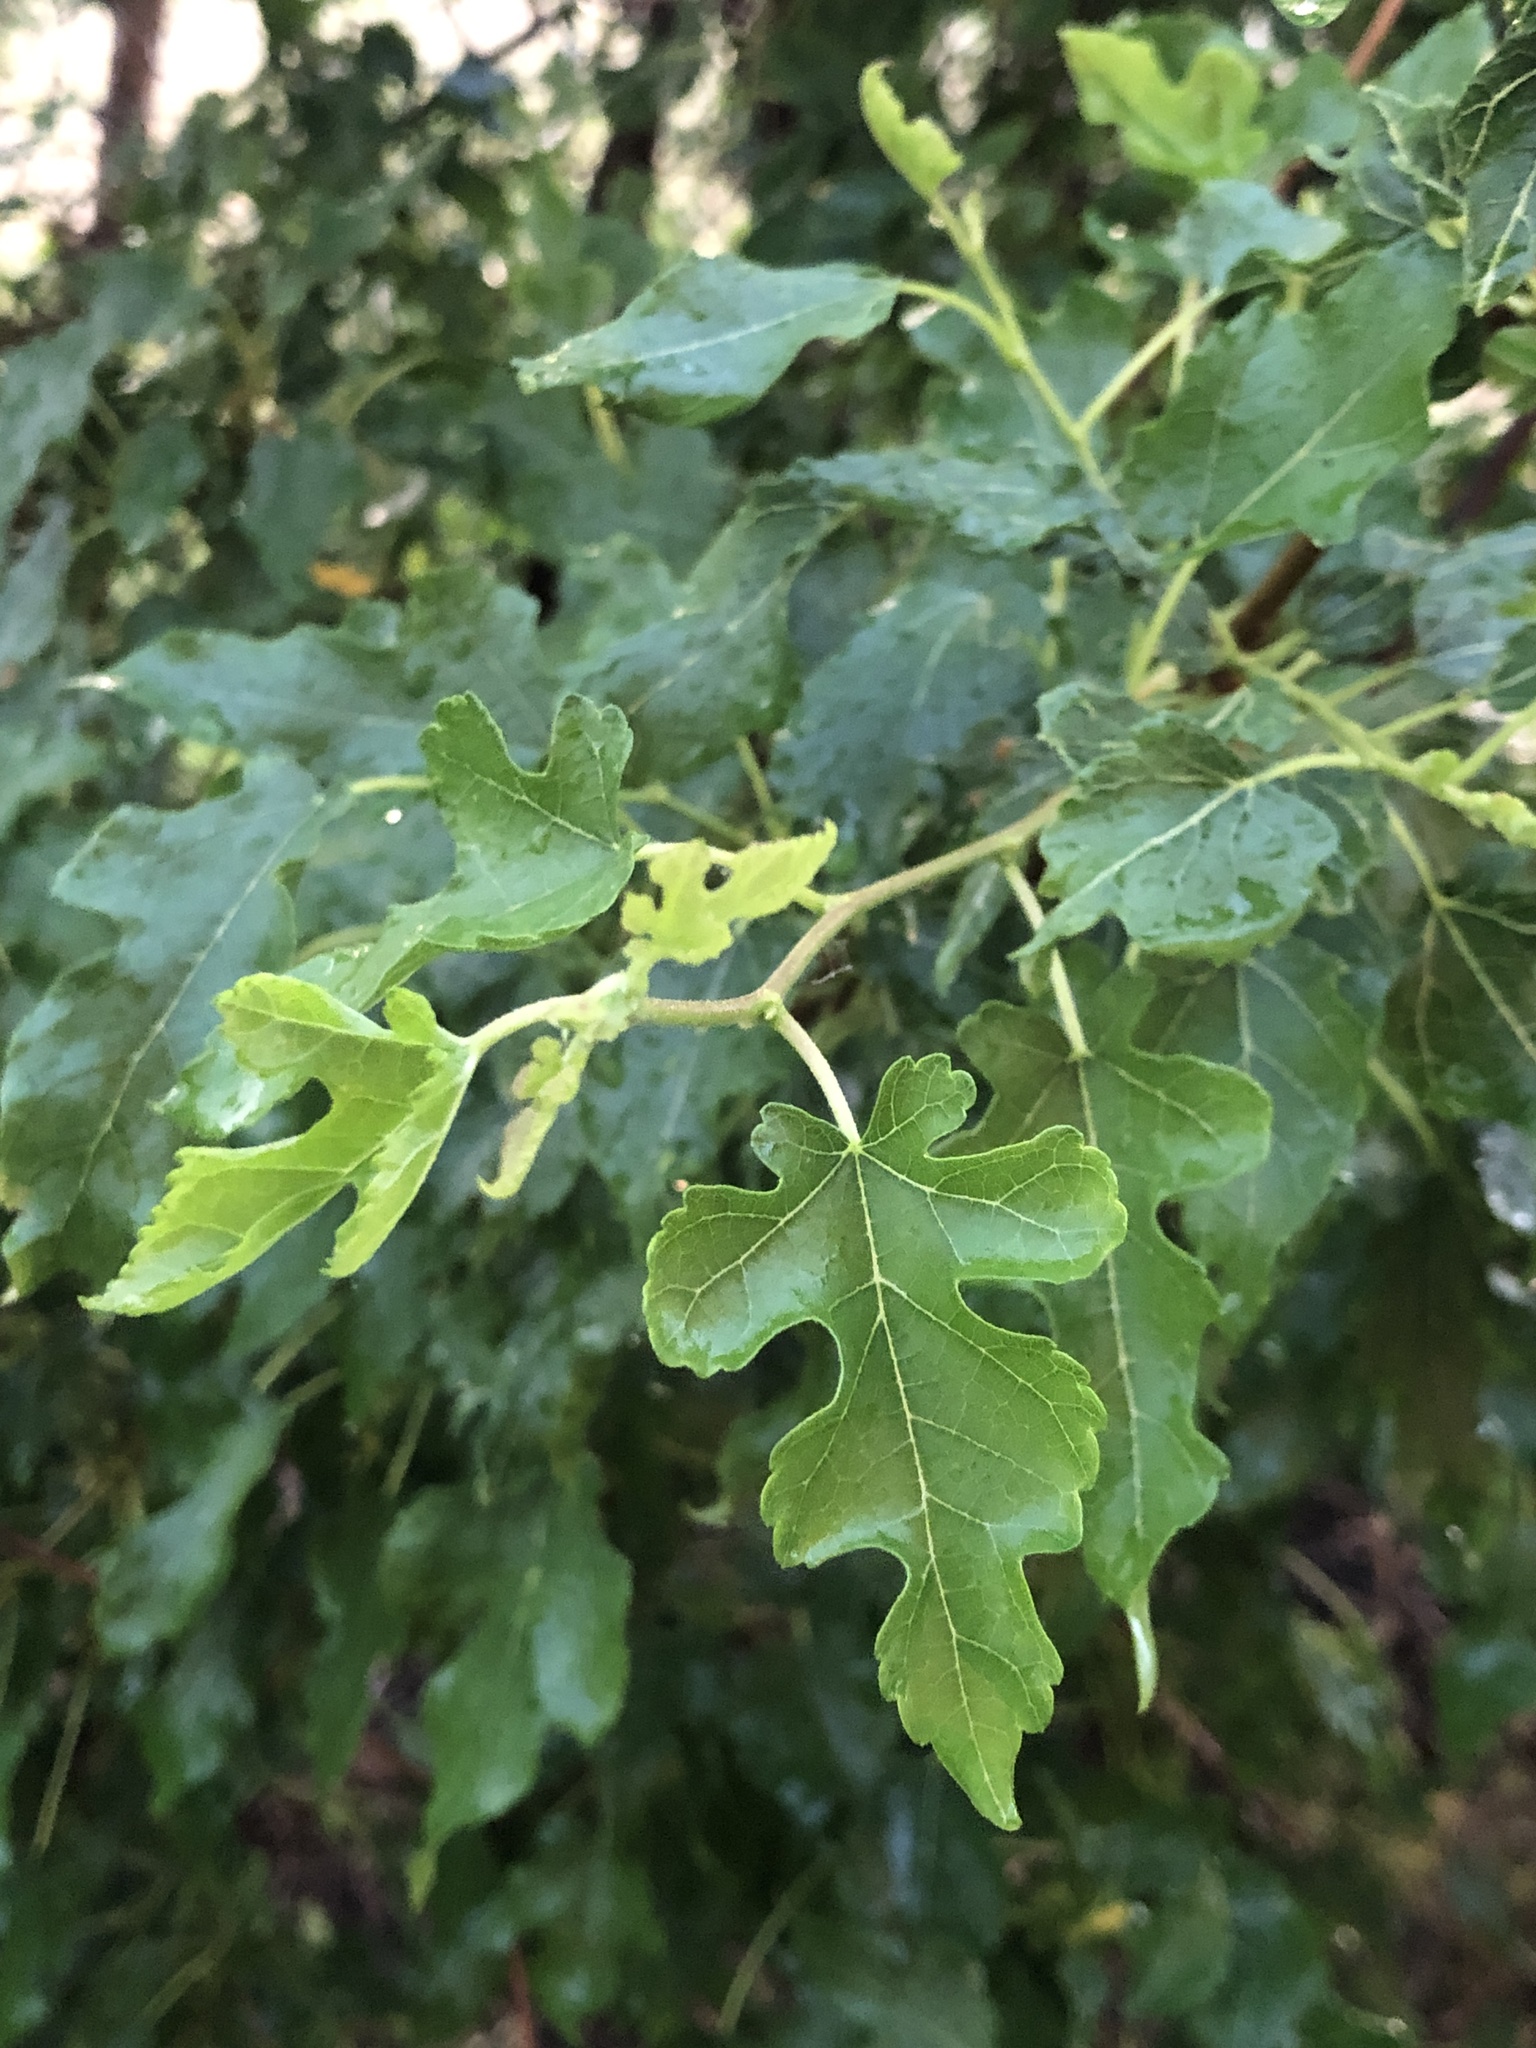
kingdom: Plantae
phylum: Tracheophyta
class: Magnoliopsida
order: Rosales
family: Moraceae
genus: Morus
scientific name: Morus alba
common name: White mulberry
